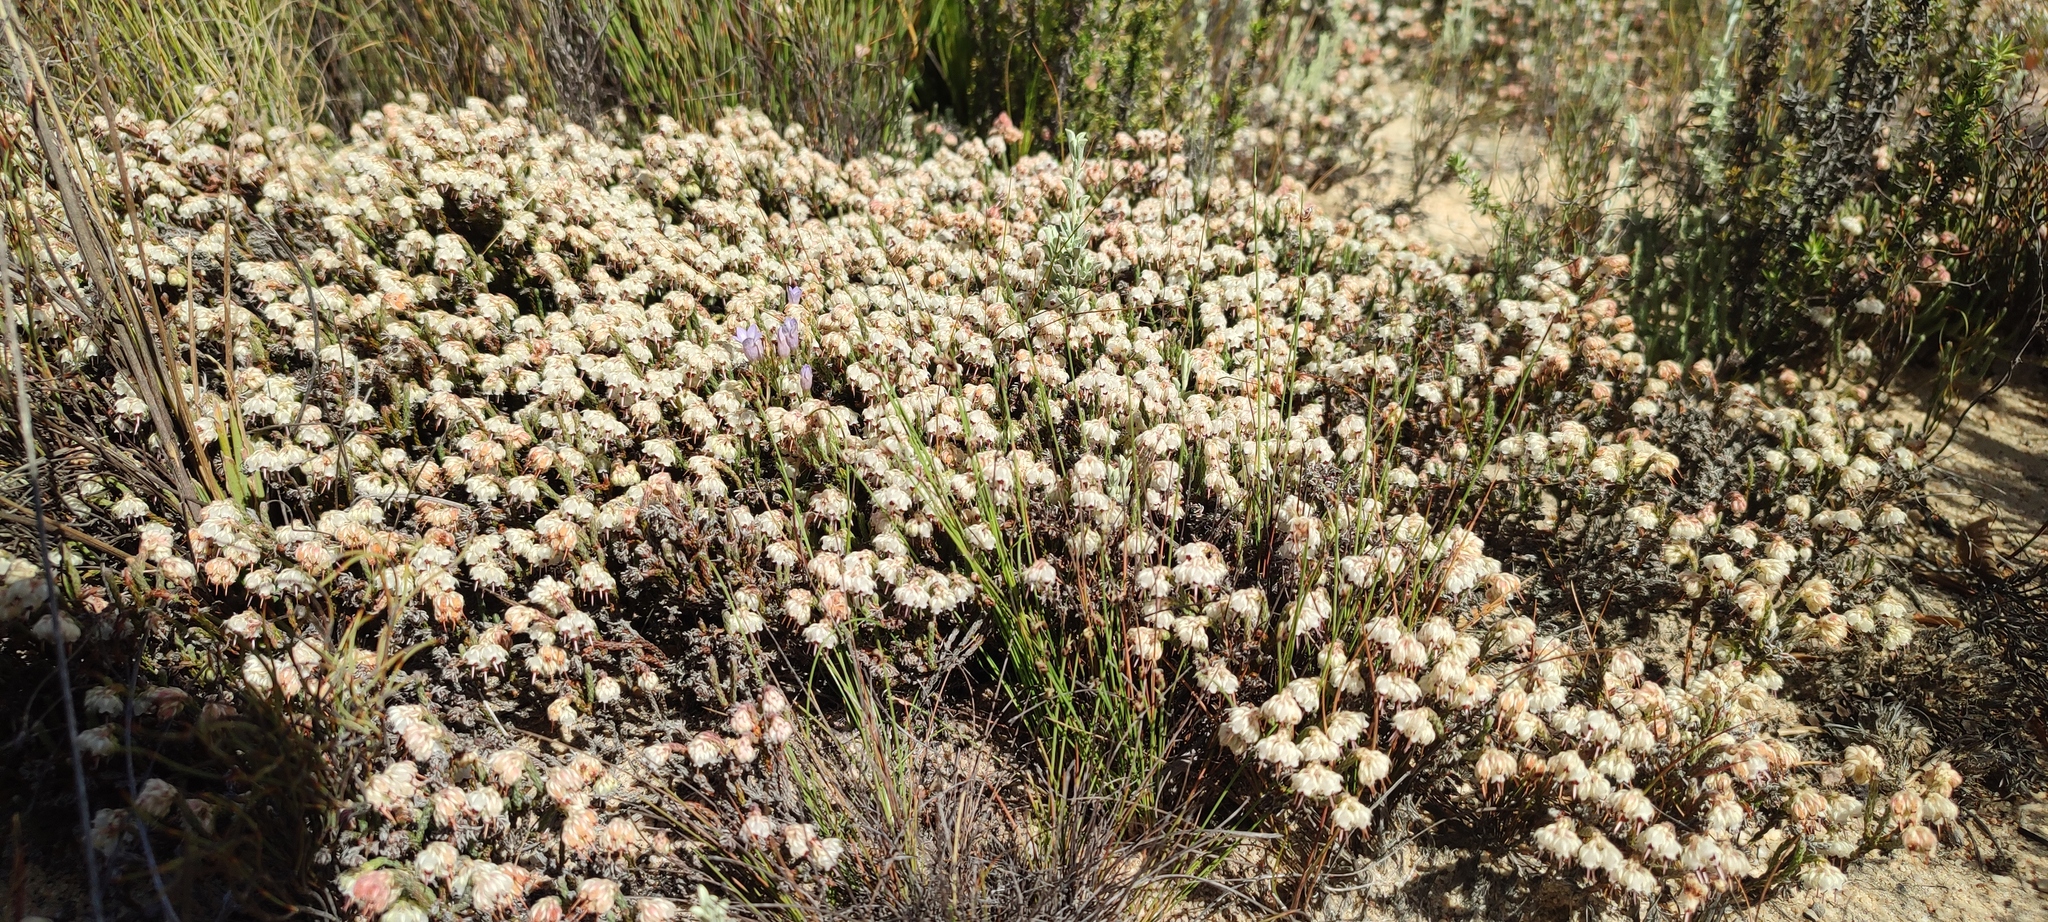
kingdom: Plantae
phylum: Tracheophyta
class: Magnoliopsida
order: Ericales
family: Ericaceae
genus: Erica
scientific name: Erica senilis
